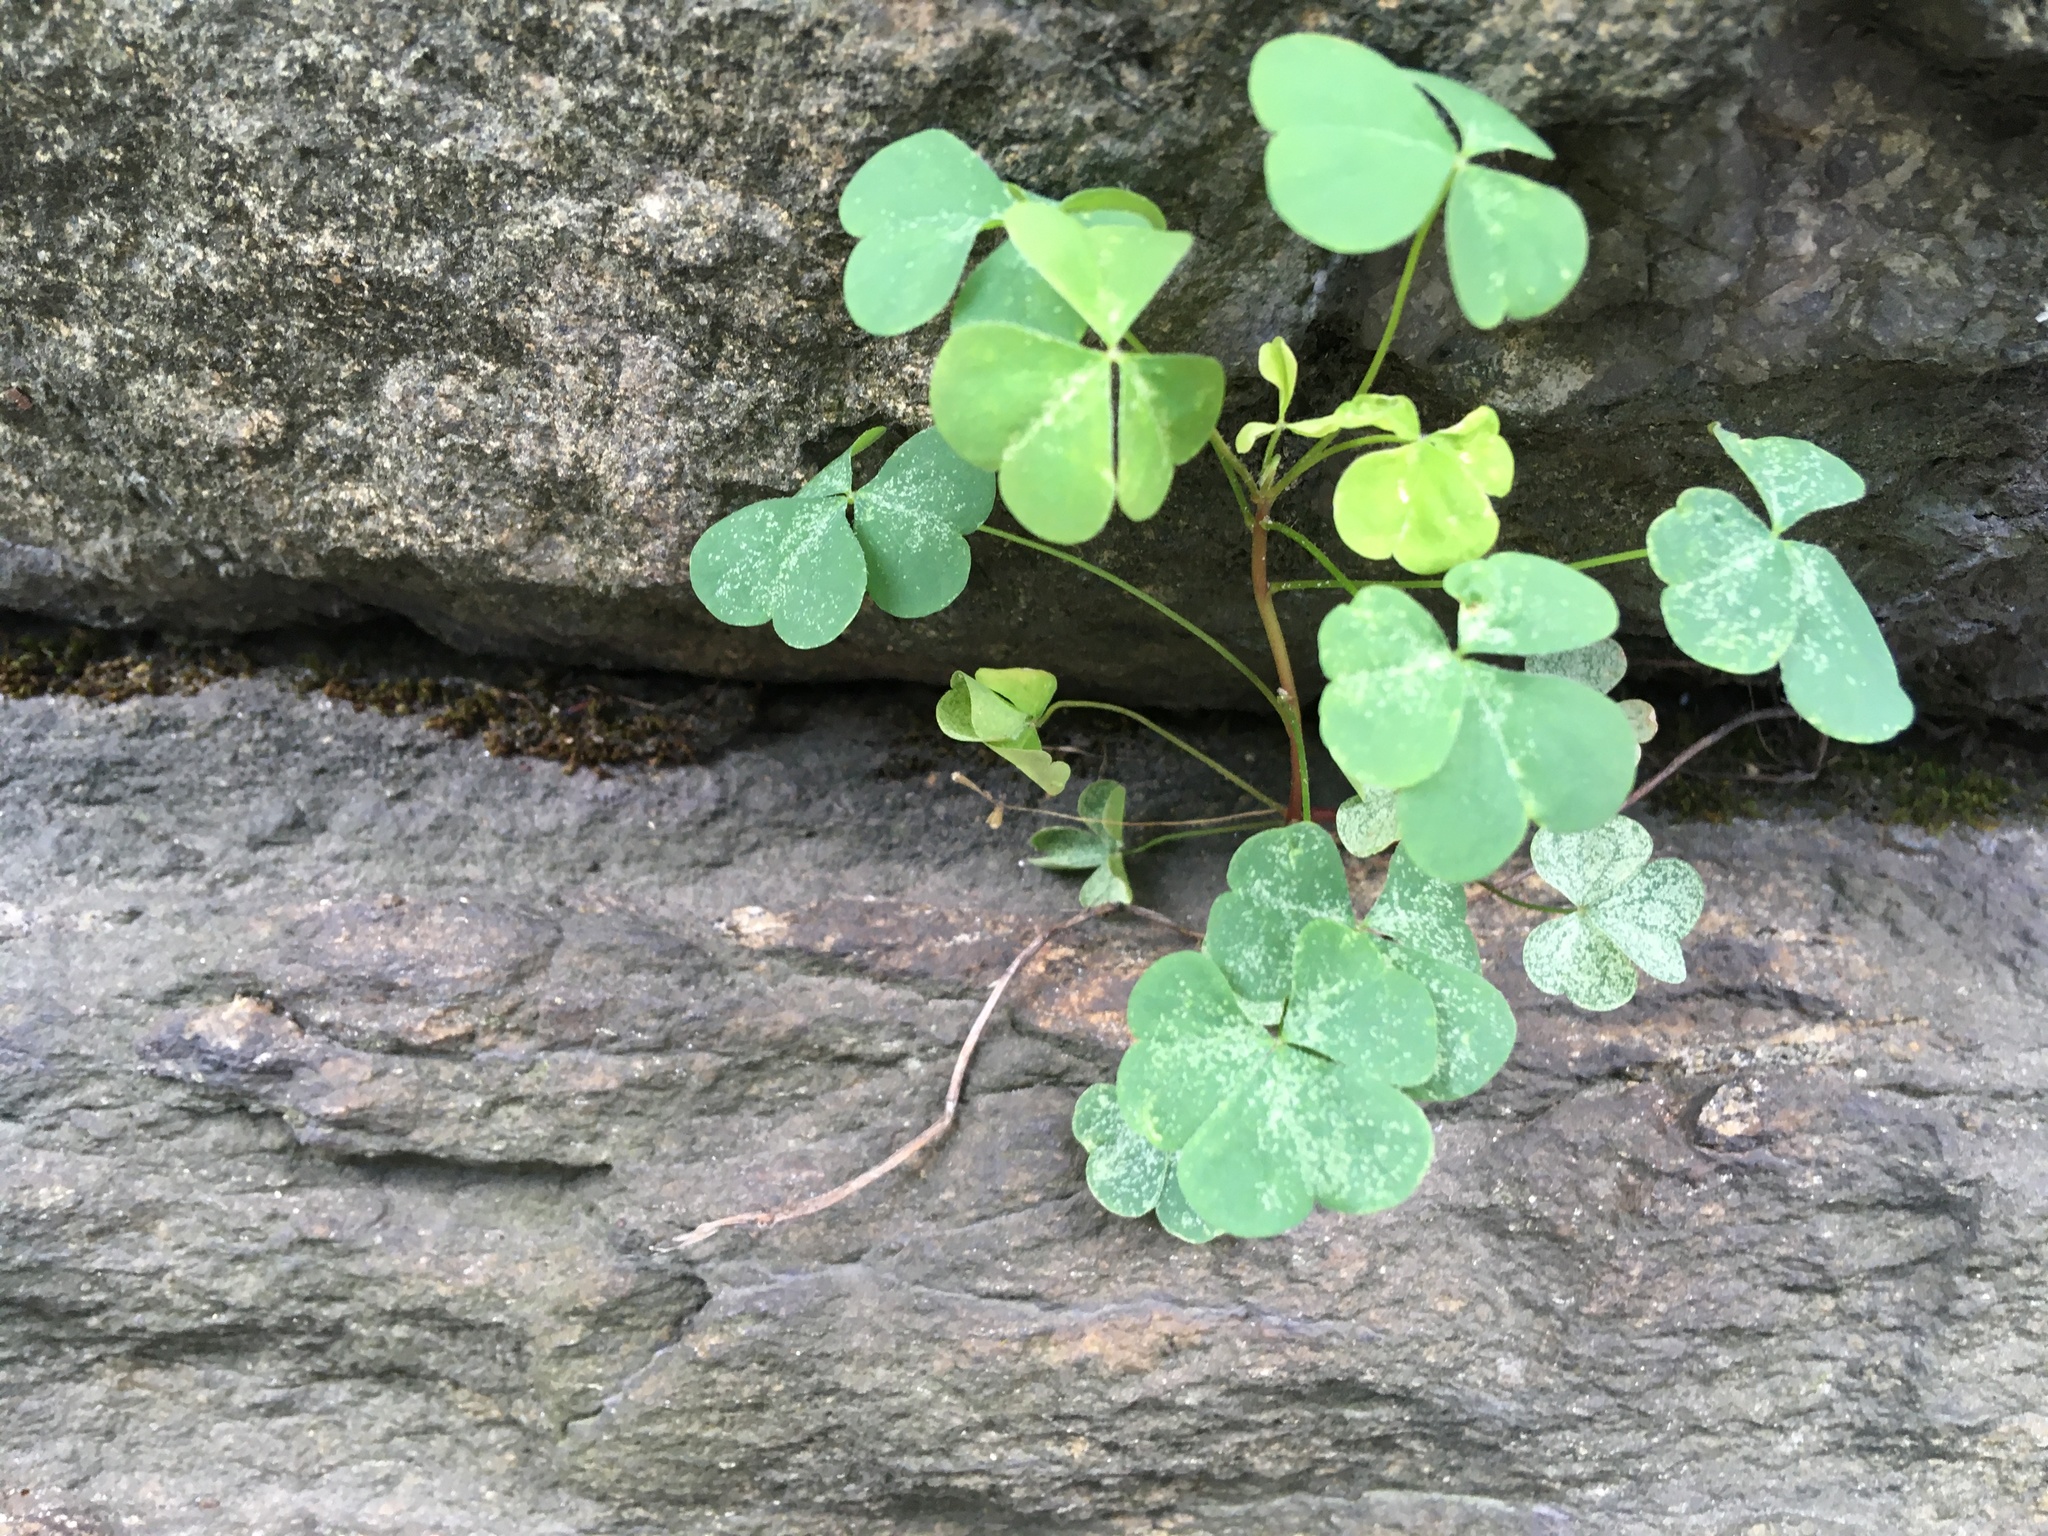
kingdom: Plantae
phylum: Tracheophyta
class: Magnoliopsida
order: Oxalidales
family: Oxalidaceae
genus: Oxalis
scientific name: Oxalis corniculata
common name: Procumbent yellow-sorrel
